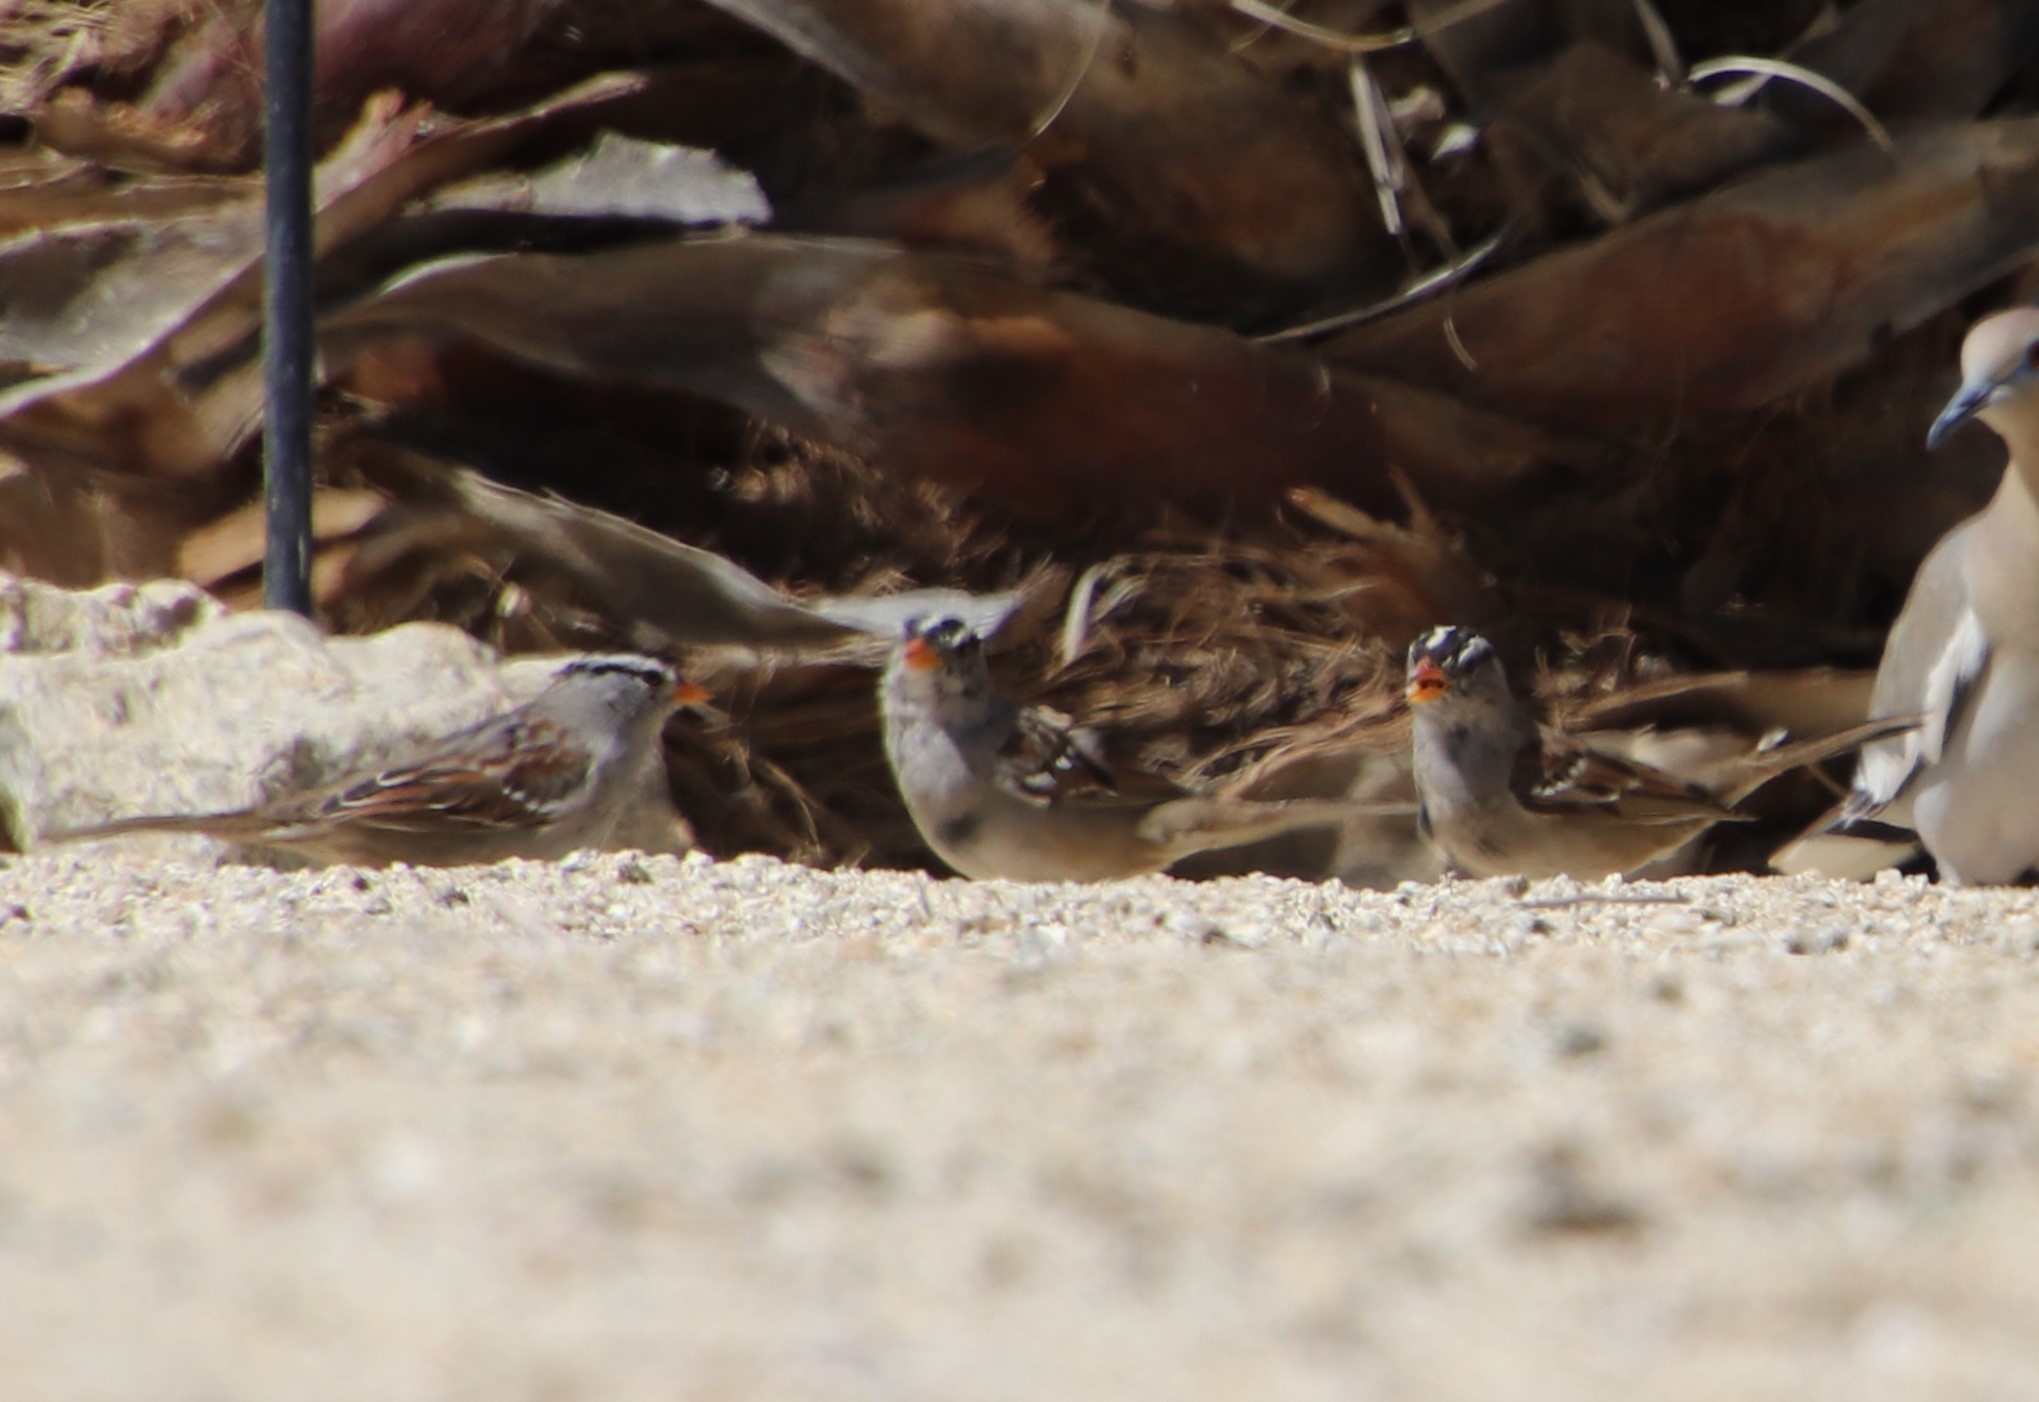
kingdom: Animalia
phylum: Chordata
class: Aves
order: Passeriformes
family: Passerellidae
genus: Zonotrichia
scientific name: Zonotrichia leucophrys
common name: White-crowned sparrow
